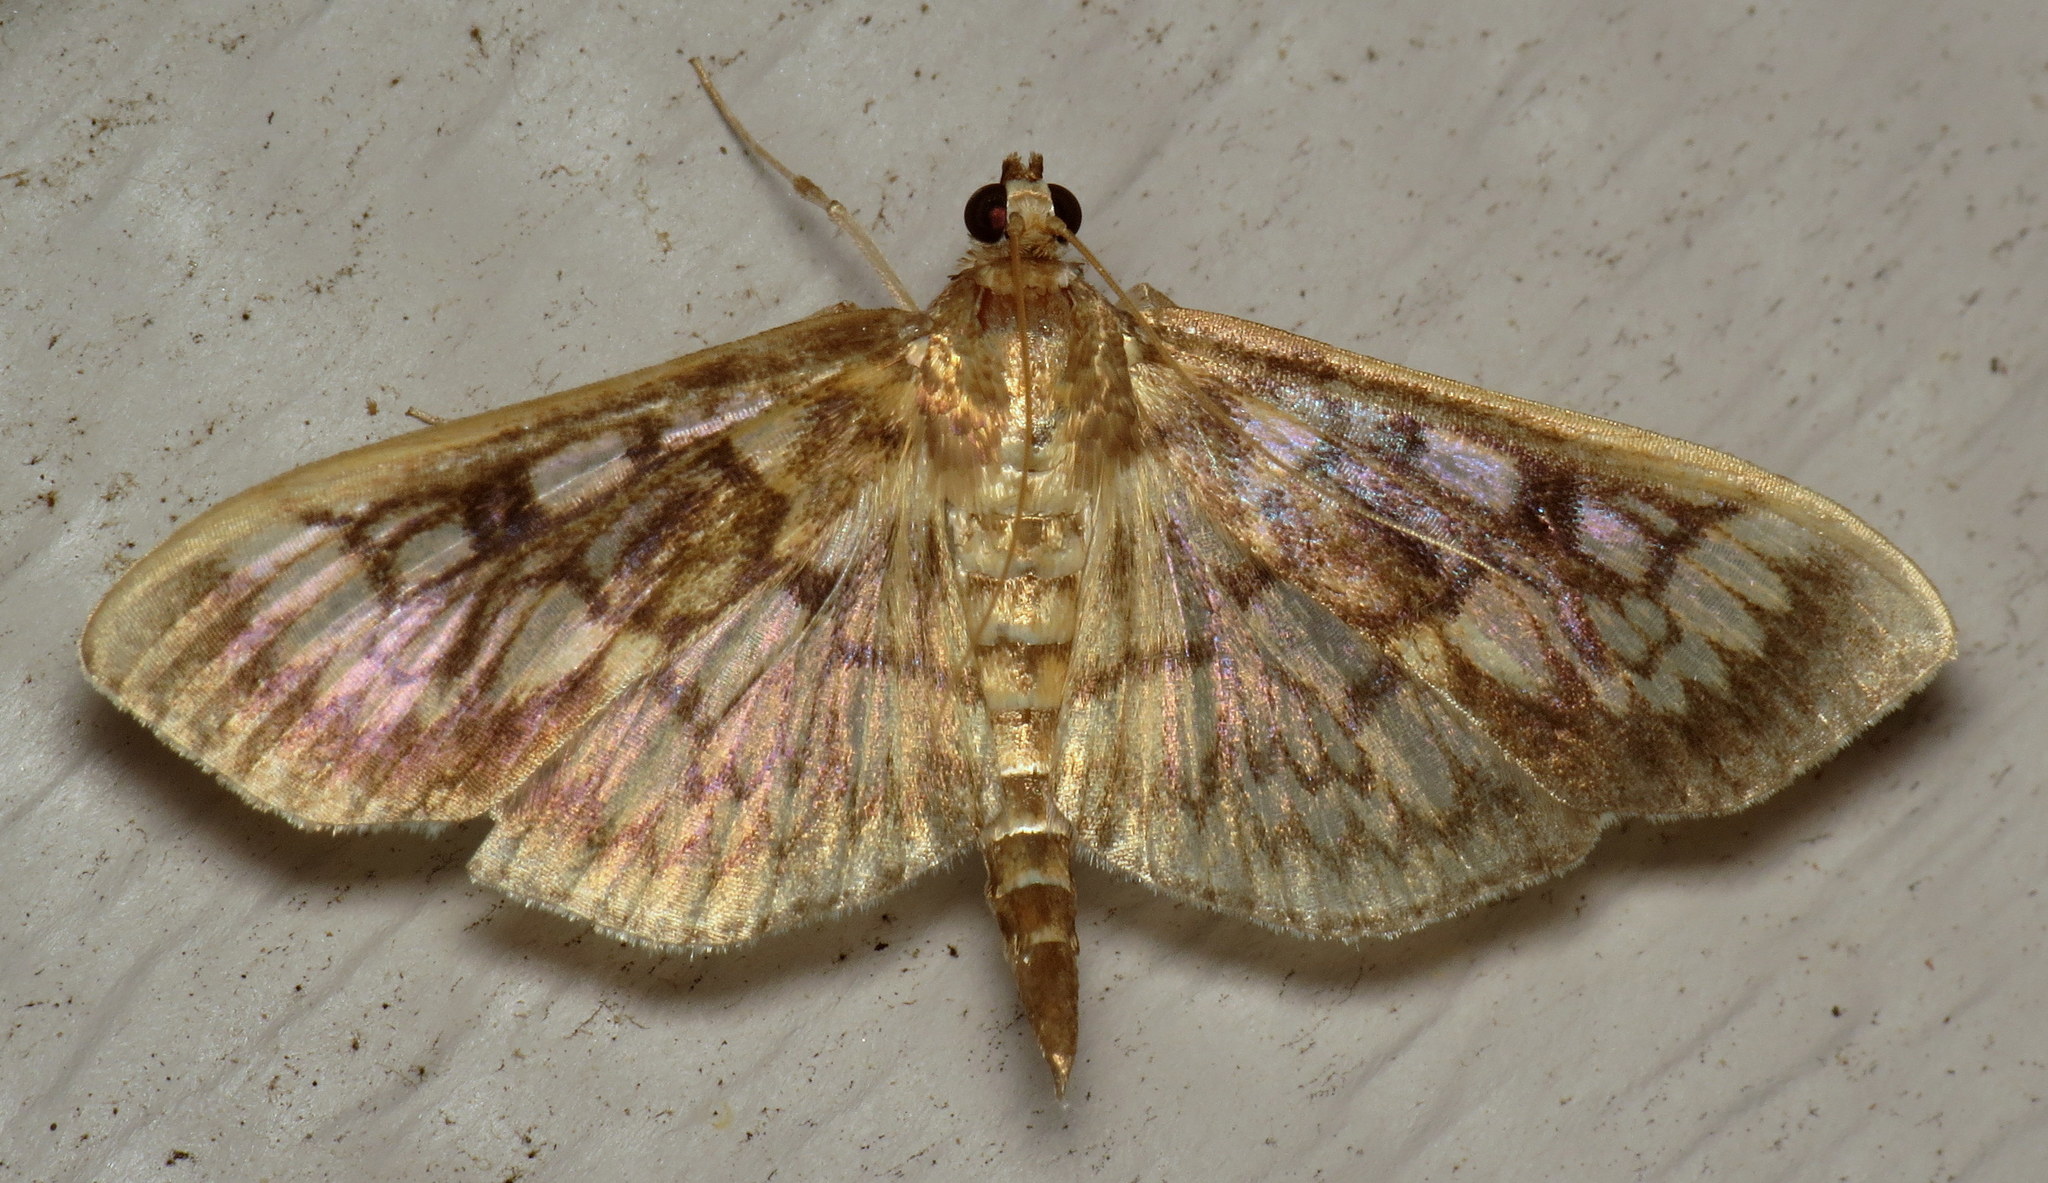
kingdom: Animalia
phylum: Arthropoda
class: Insecta
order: Lepidoptera
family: Crambidae
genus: Herpetogramma
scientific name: Herpetogramma thestealis
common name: Zigzag herpetogramma moth
